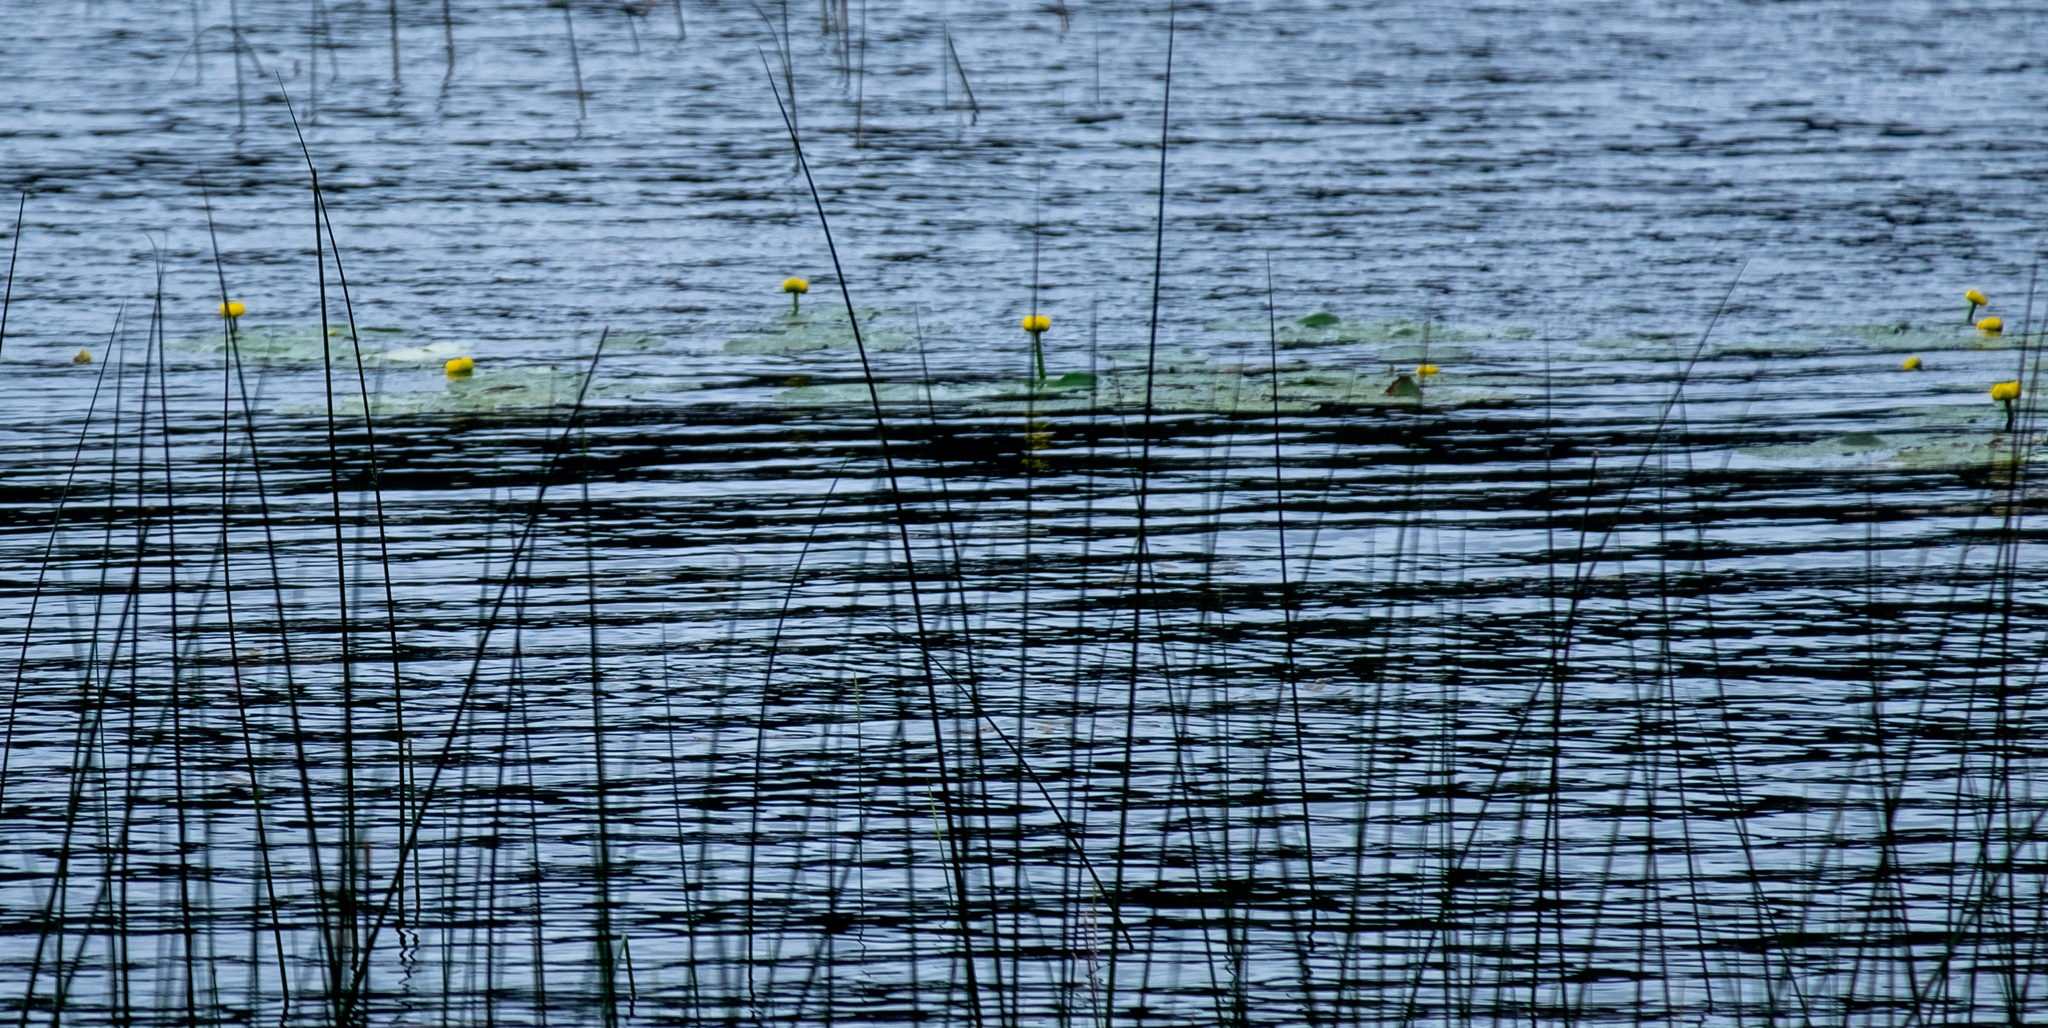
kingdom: Plantae
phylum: Tracheophyta
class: Magnoliopsida
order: Nymphaeales
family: Nymphaeaceae
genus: Nuphar
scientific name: Nuphar lutea
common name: Yellow water-lily
